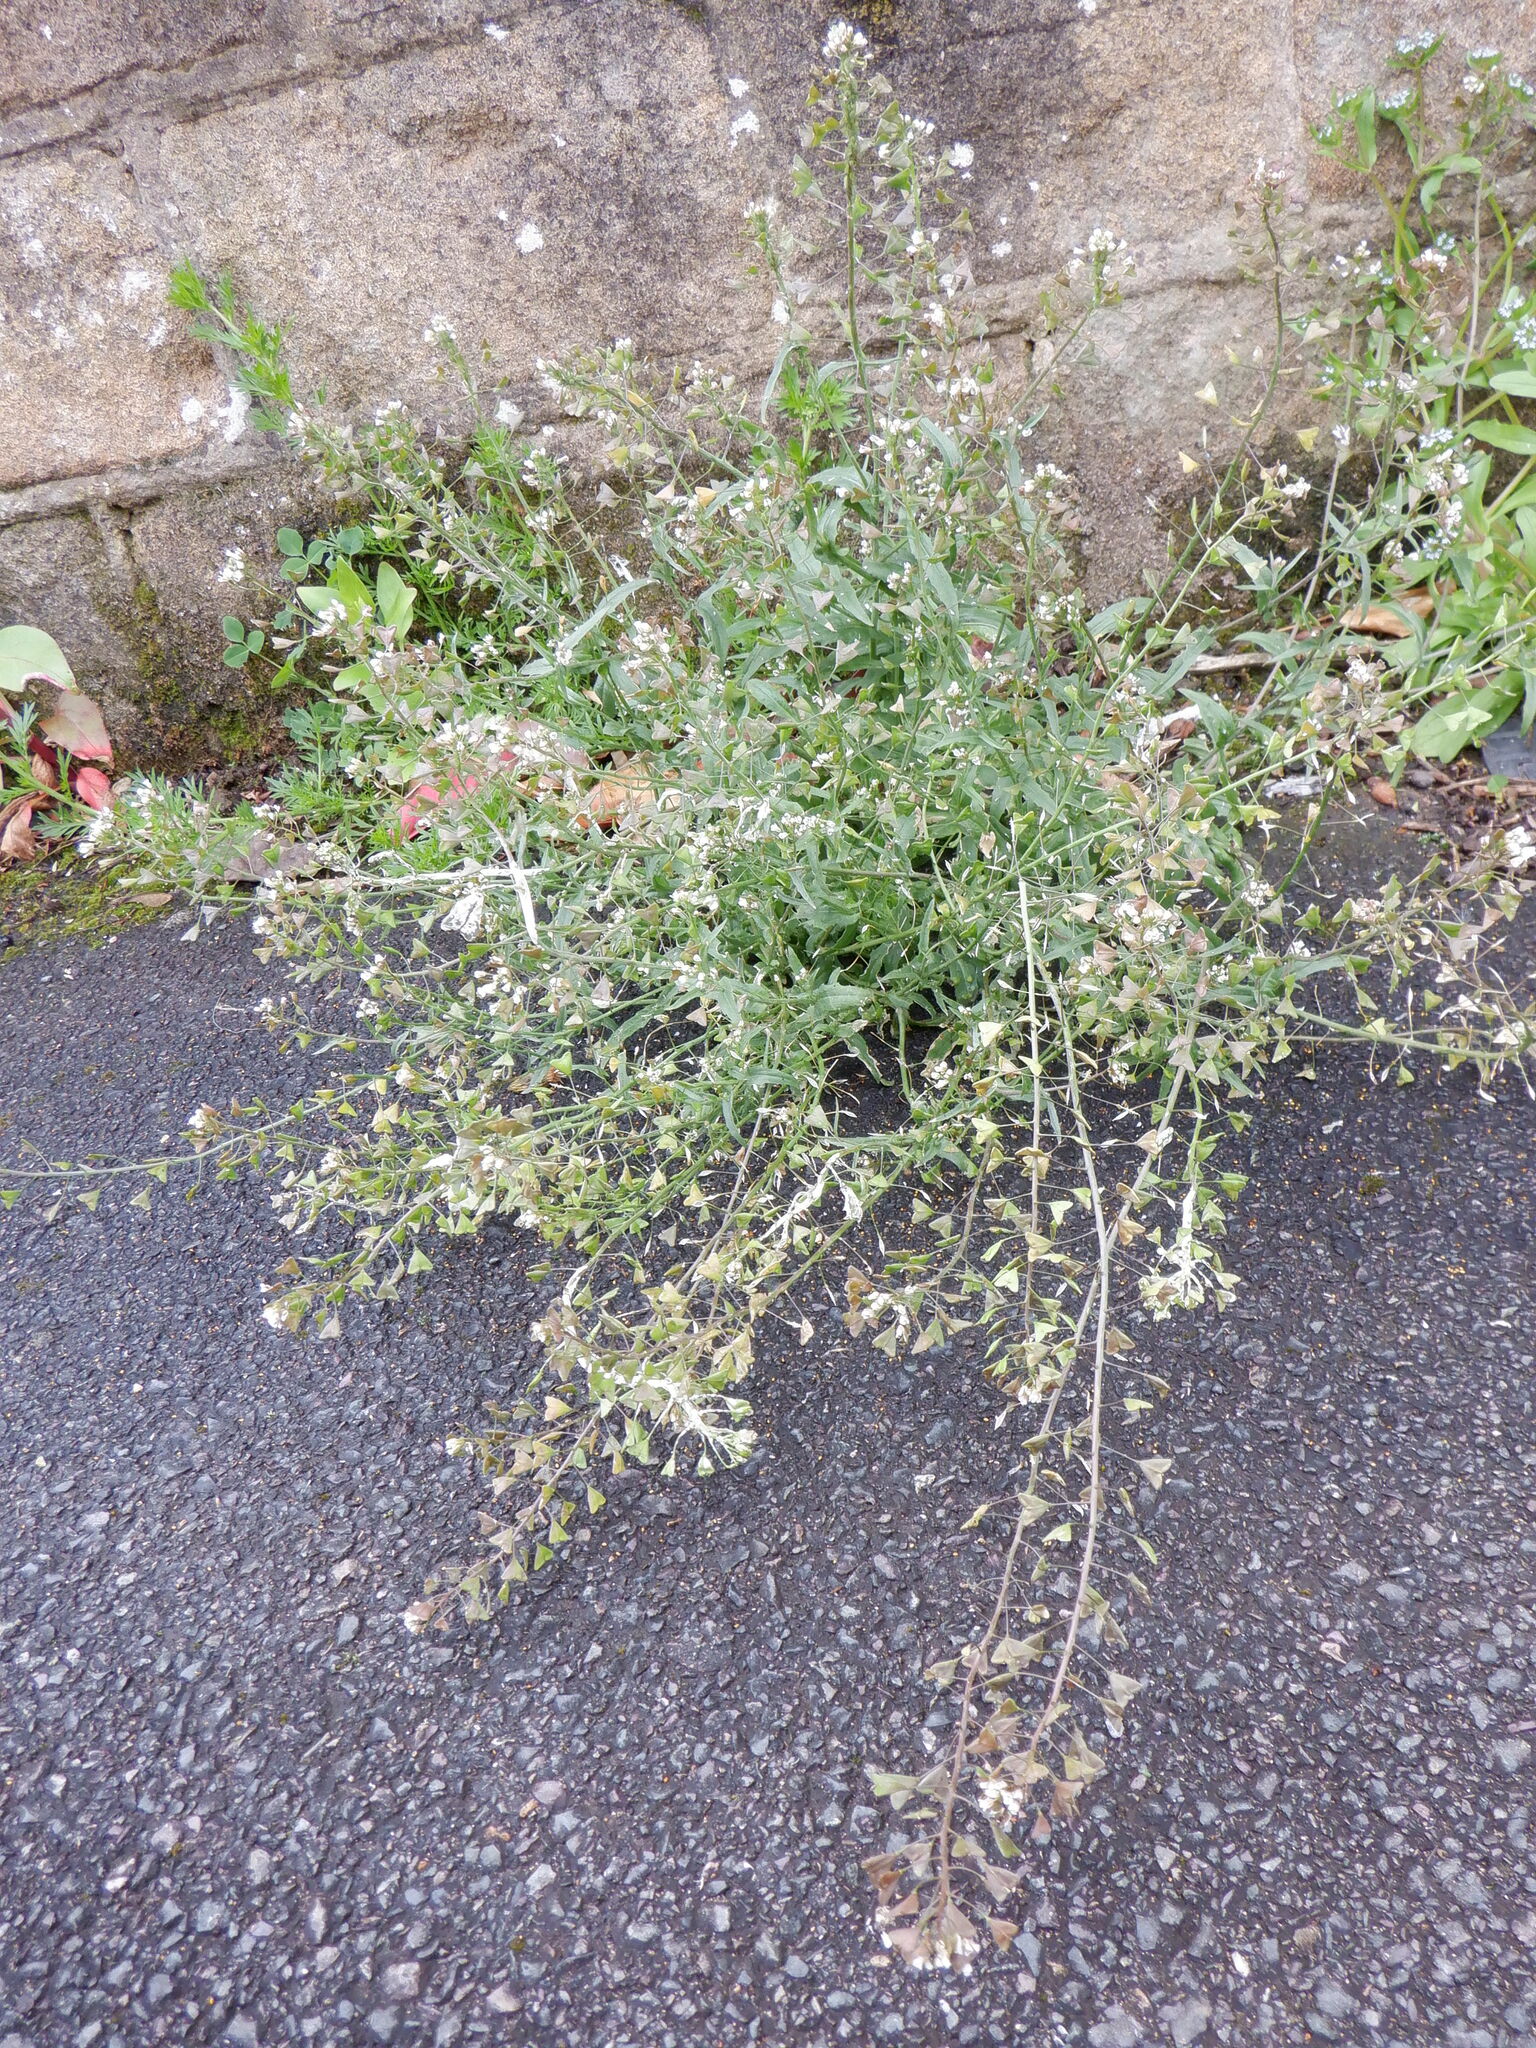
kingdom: Plantae
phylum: Tracheophyta
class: Magnoliopsida
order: Brassicales
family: Brassicaceae
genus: Capsella
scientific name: Capsella bursa-pastoris
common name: Shepherd's purse
